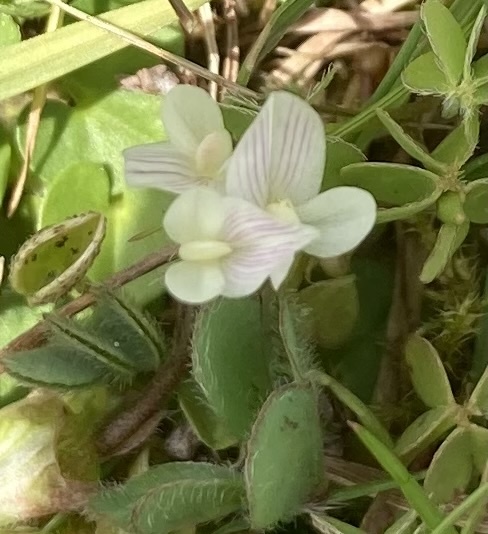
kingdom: Plantae
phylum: Tracheophyta
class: Magnoliopsida
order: Fabales
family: Fabaceae
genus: Trifolium
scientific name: Trifolium subterraneum
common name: Subterranean clover
